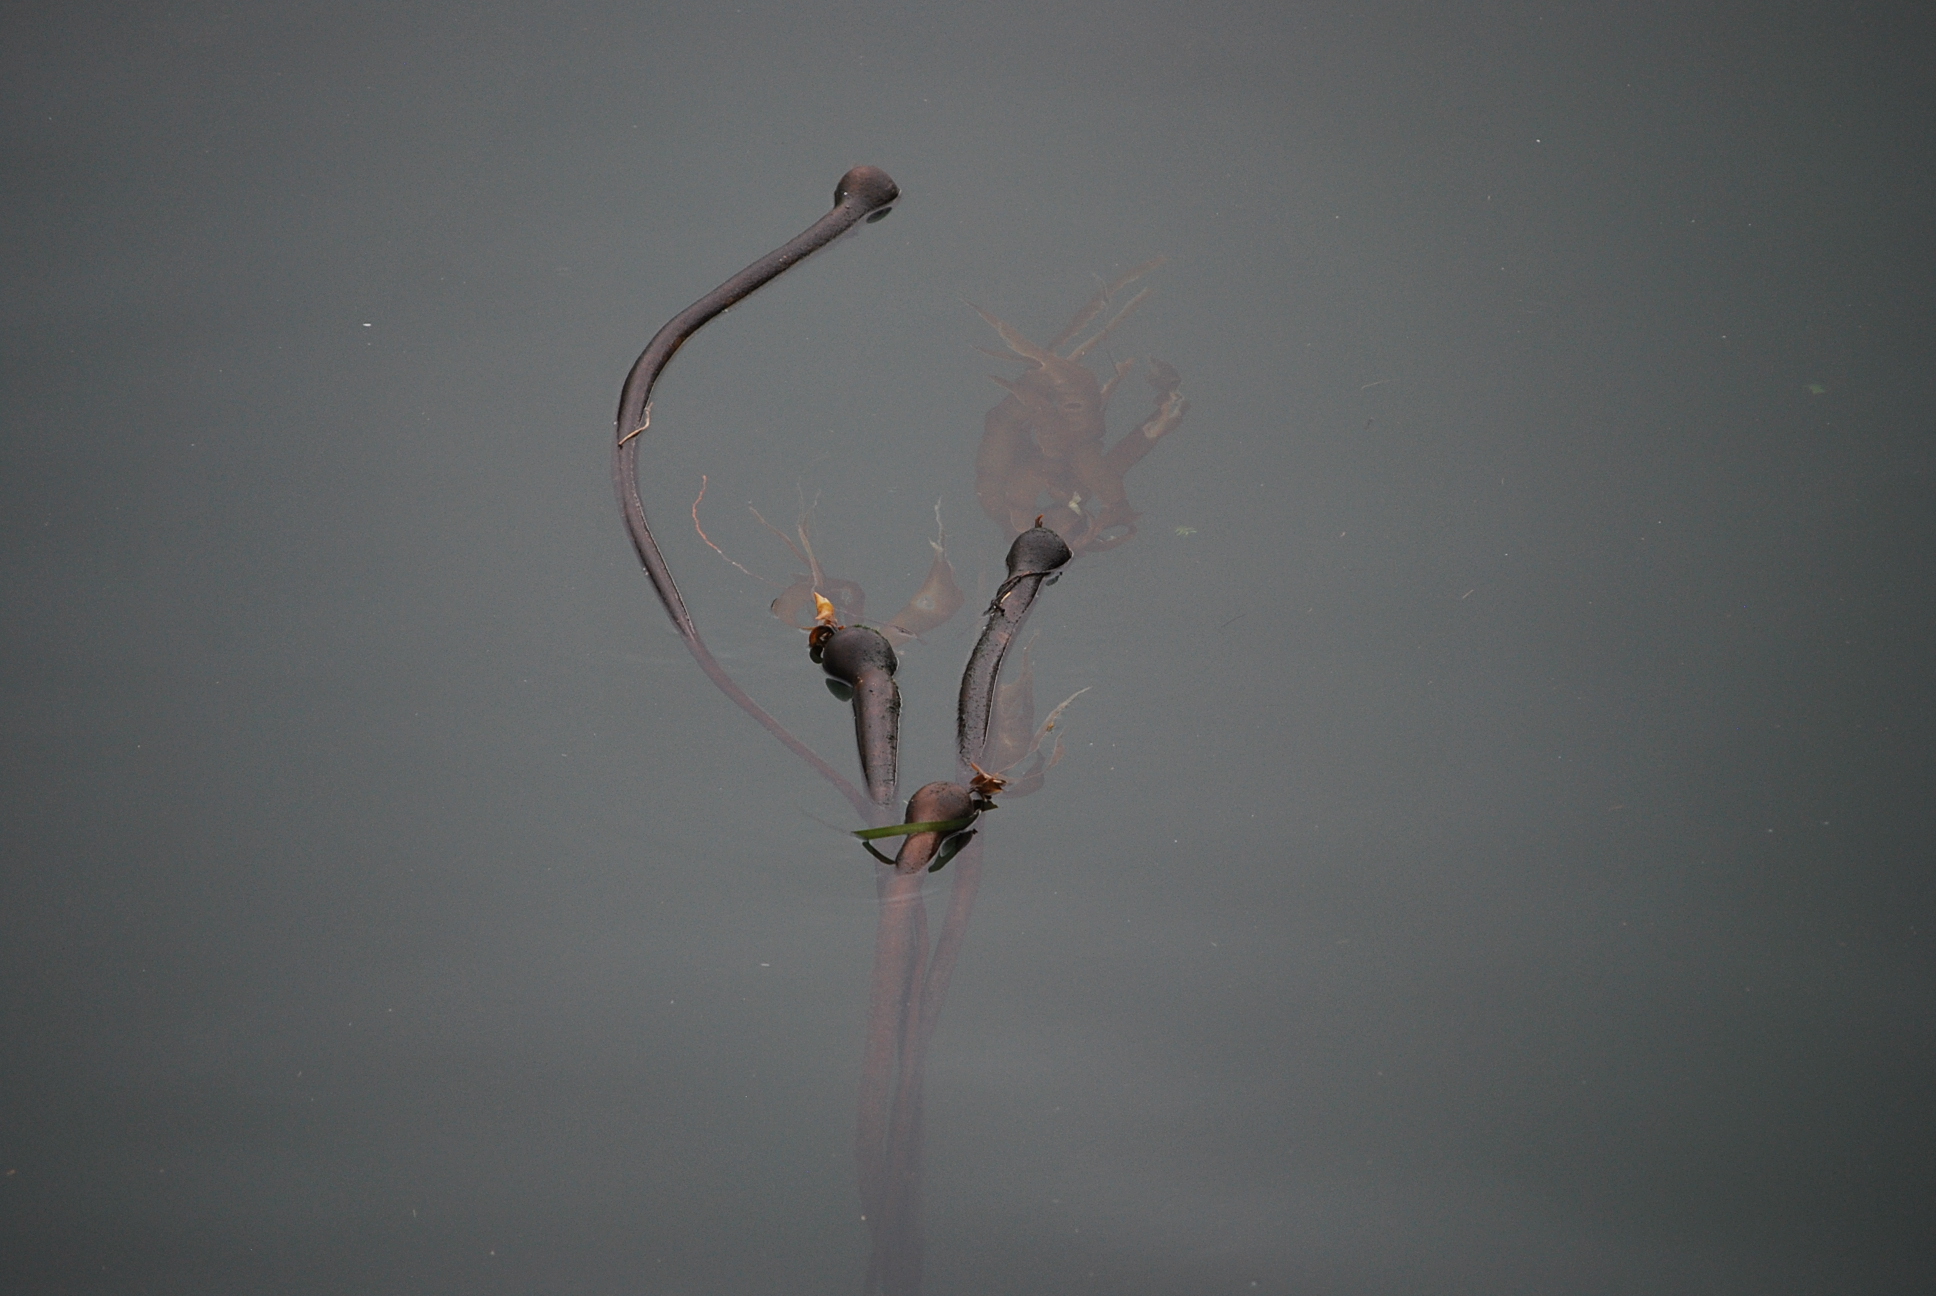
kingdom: Chromista
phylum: Ochrophyta
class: Phaeophyceae
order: Laminariales
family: Laminariaceae
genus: Nereocystis
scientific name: Nereocystis luetkeana
